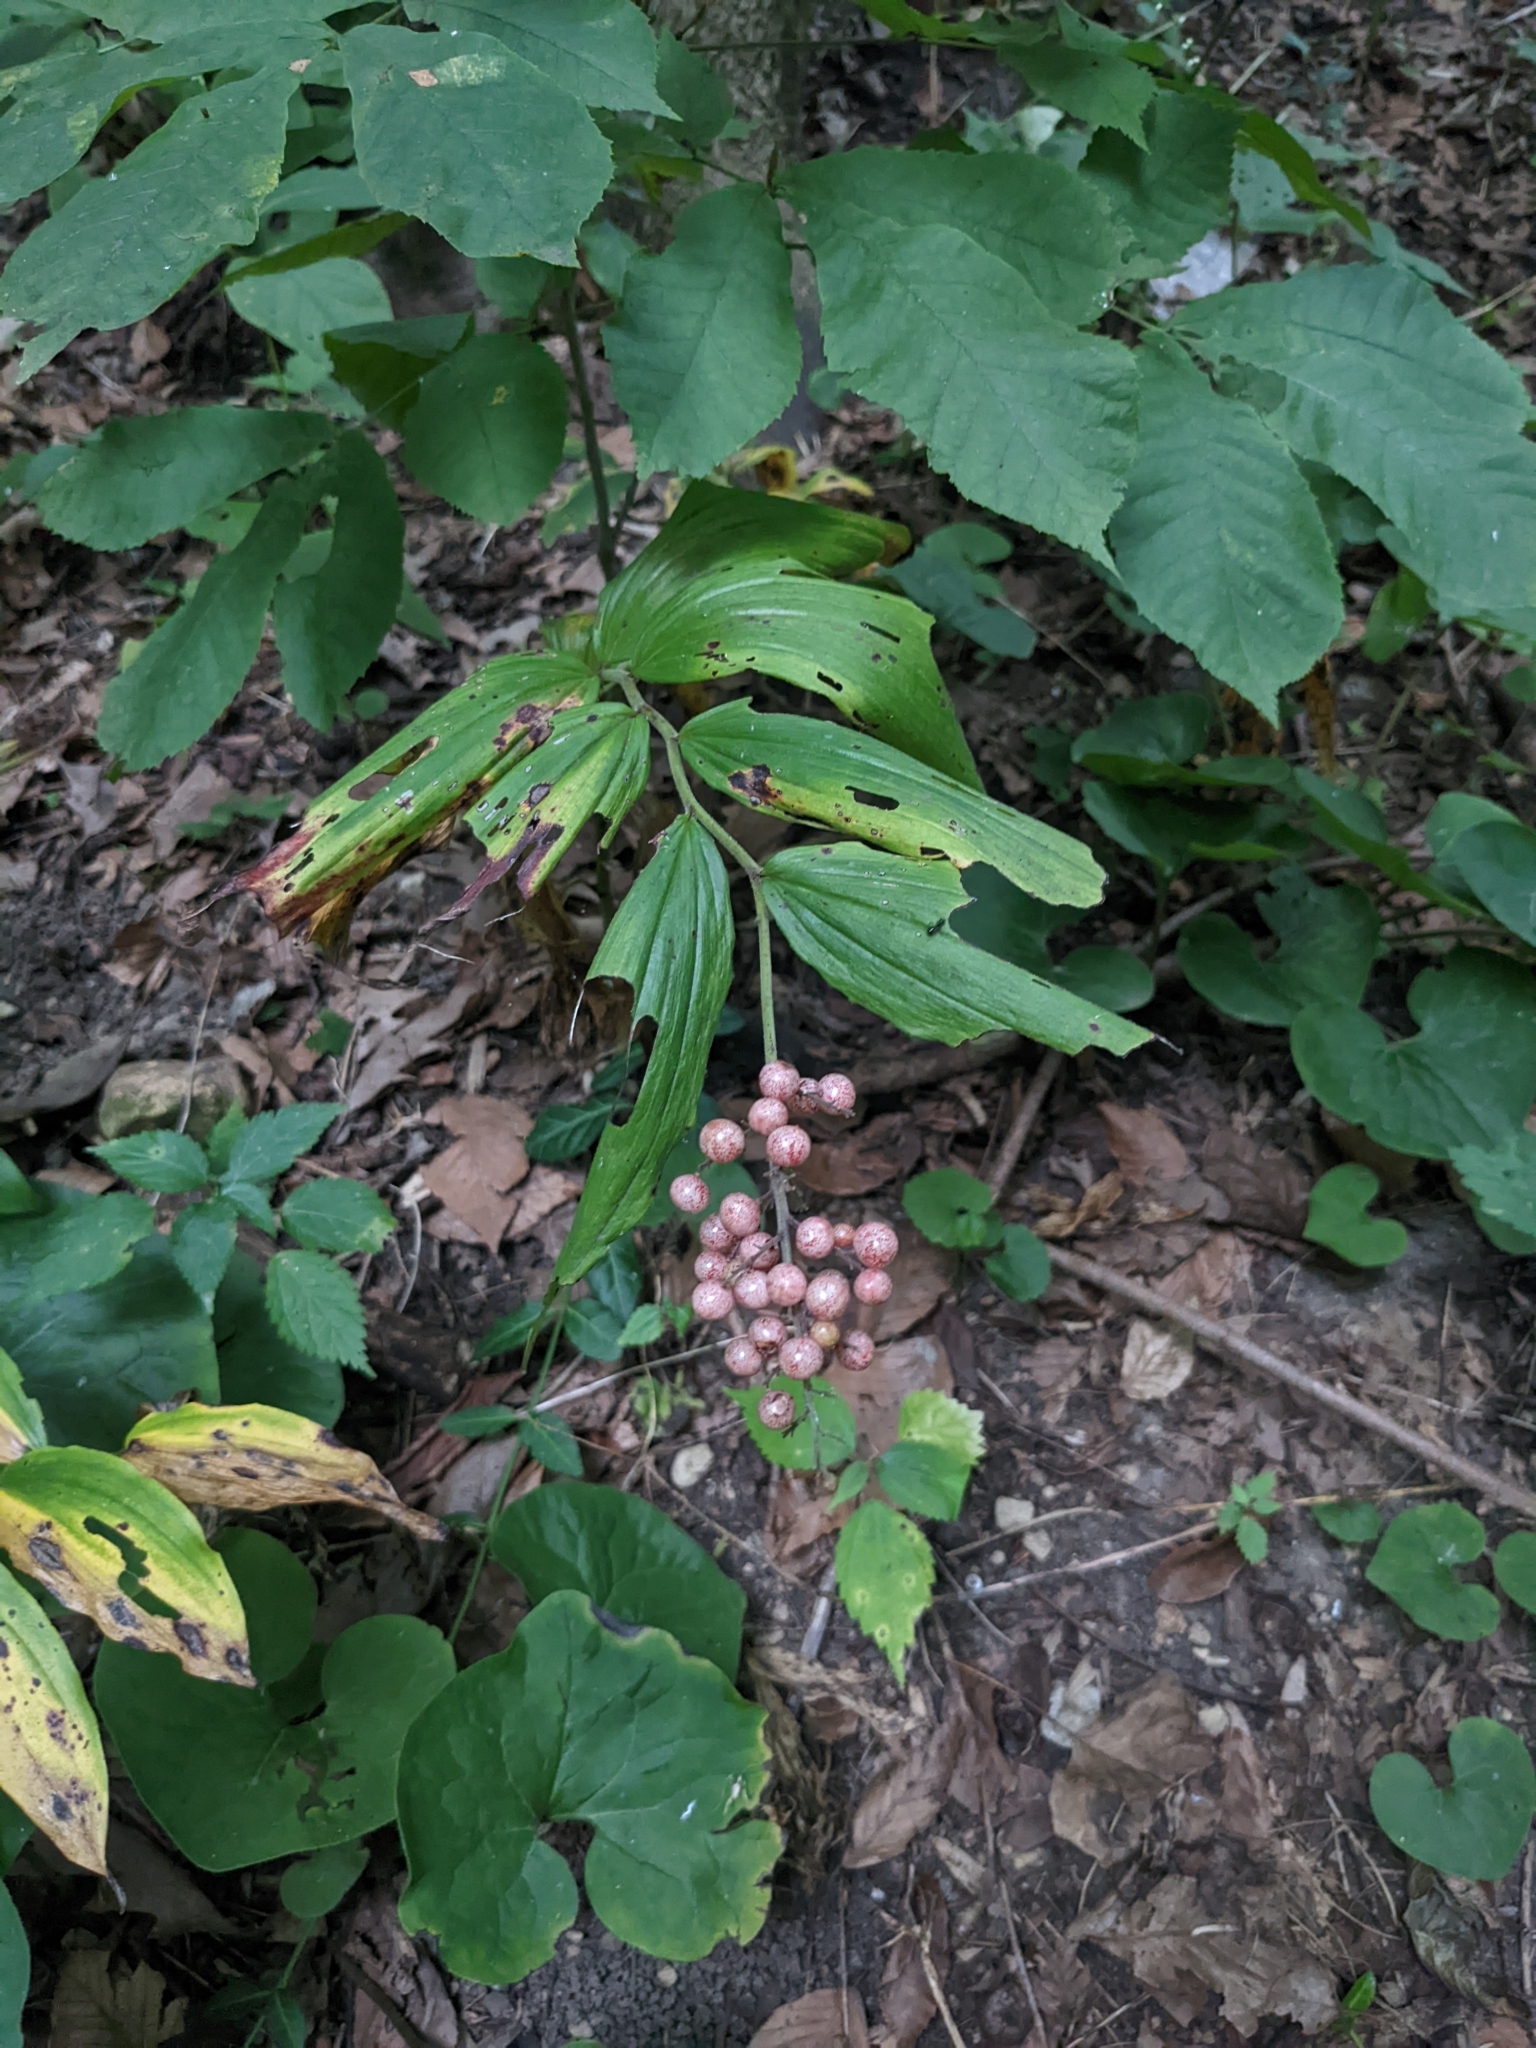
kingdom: Plantae
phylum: Tracheophyta
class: Liliopsida
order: Asparagales
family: Asparagaceae
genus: Maianthemum
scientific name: Maianthemum racemosum
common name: False spikenard
